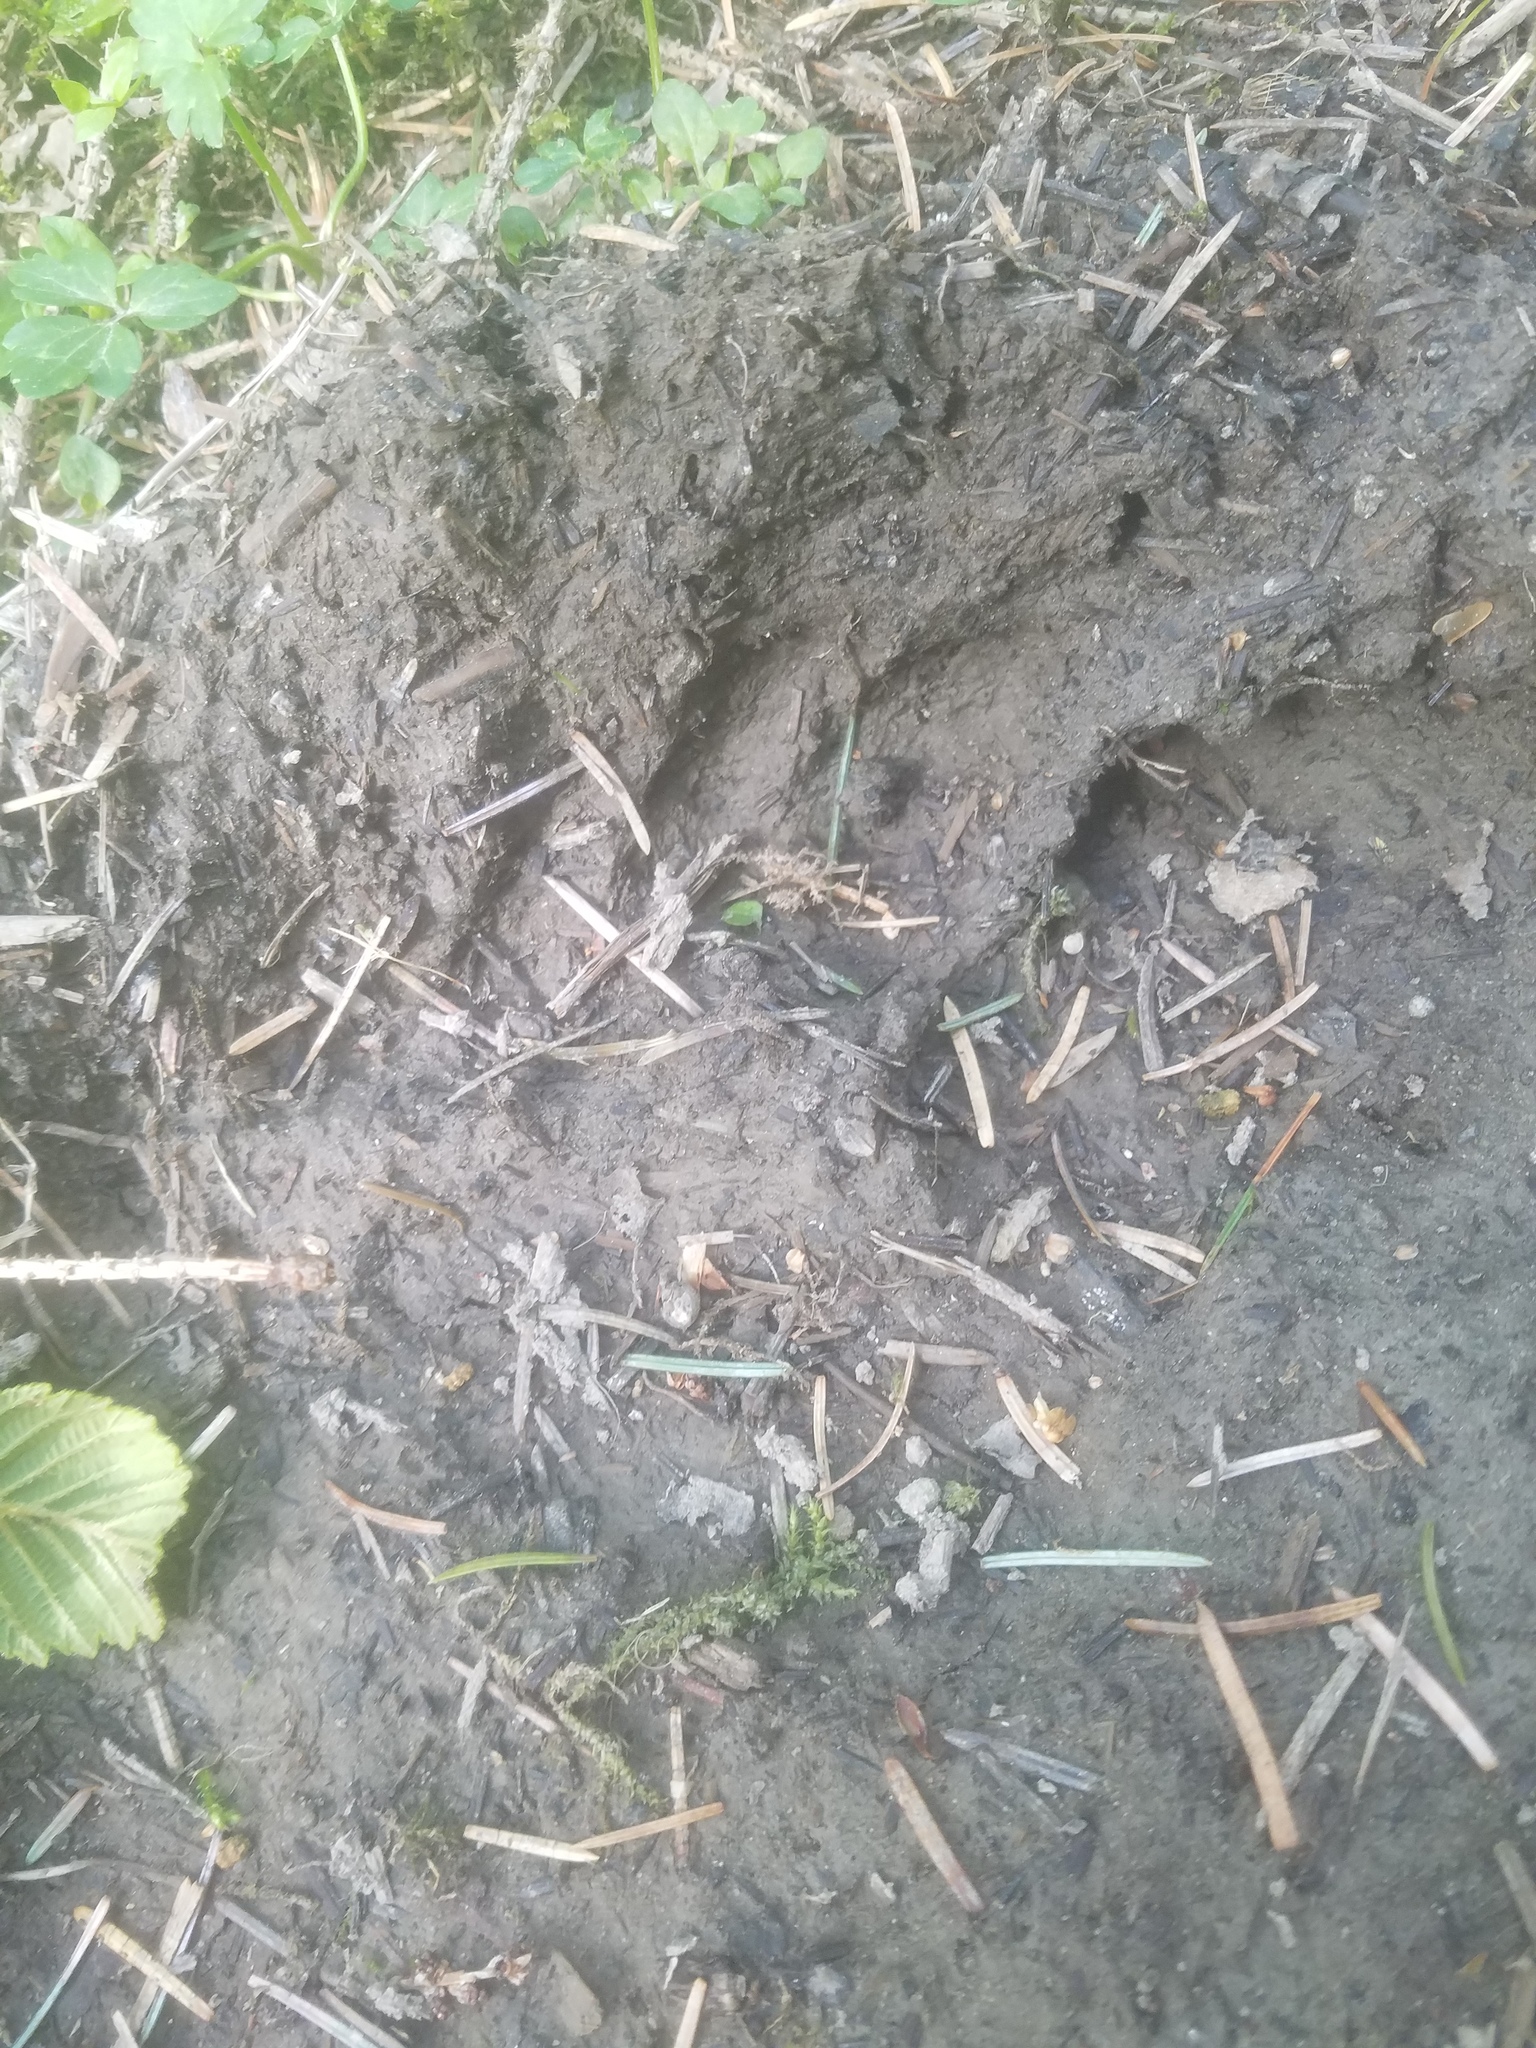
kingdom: Animalia
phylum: Chordata
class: Mammalia
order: Carnivora
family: Felidae
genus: Puma
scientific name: Puma concolor
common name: Puma
